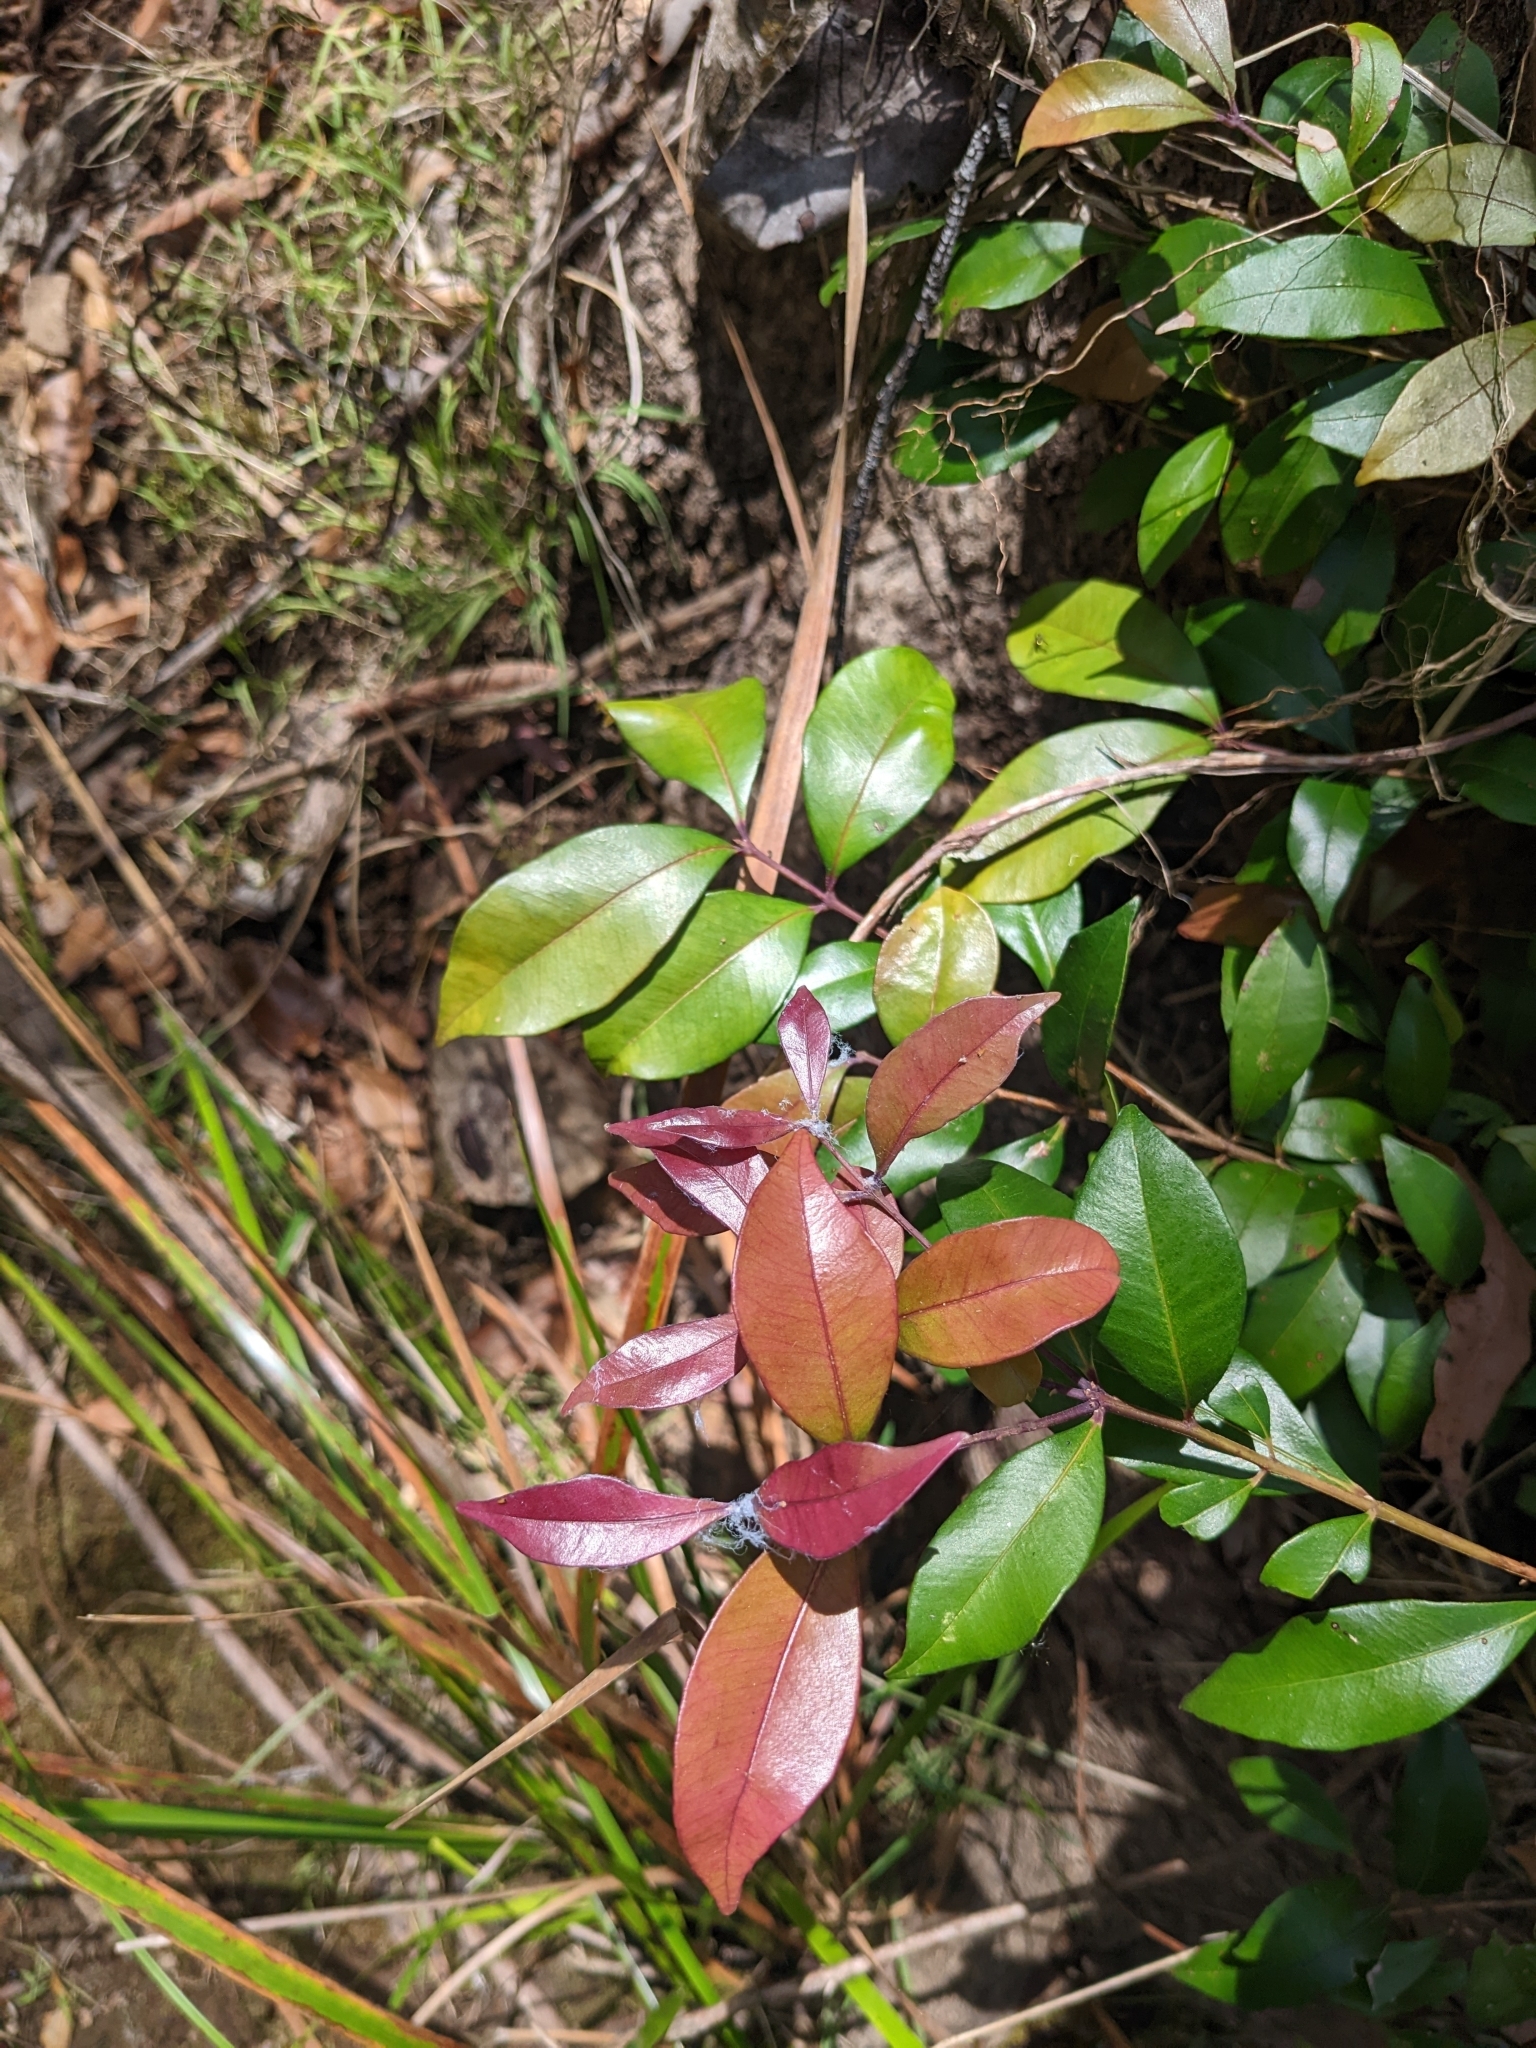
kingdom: Plantae
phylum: Tracheophyta
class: Magnoliopsida
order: Myrtales
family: Myrtaceae
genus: Syzygium
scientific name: Syzygium smithii
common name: Lilly-pilly
